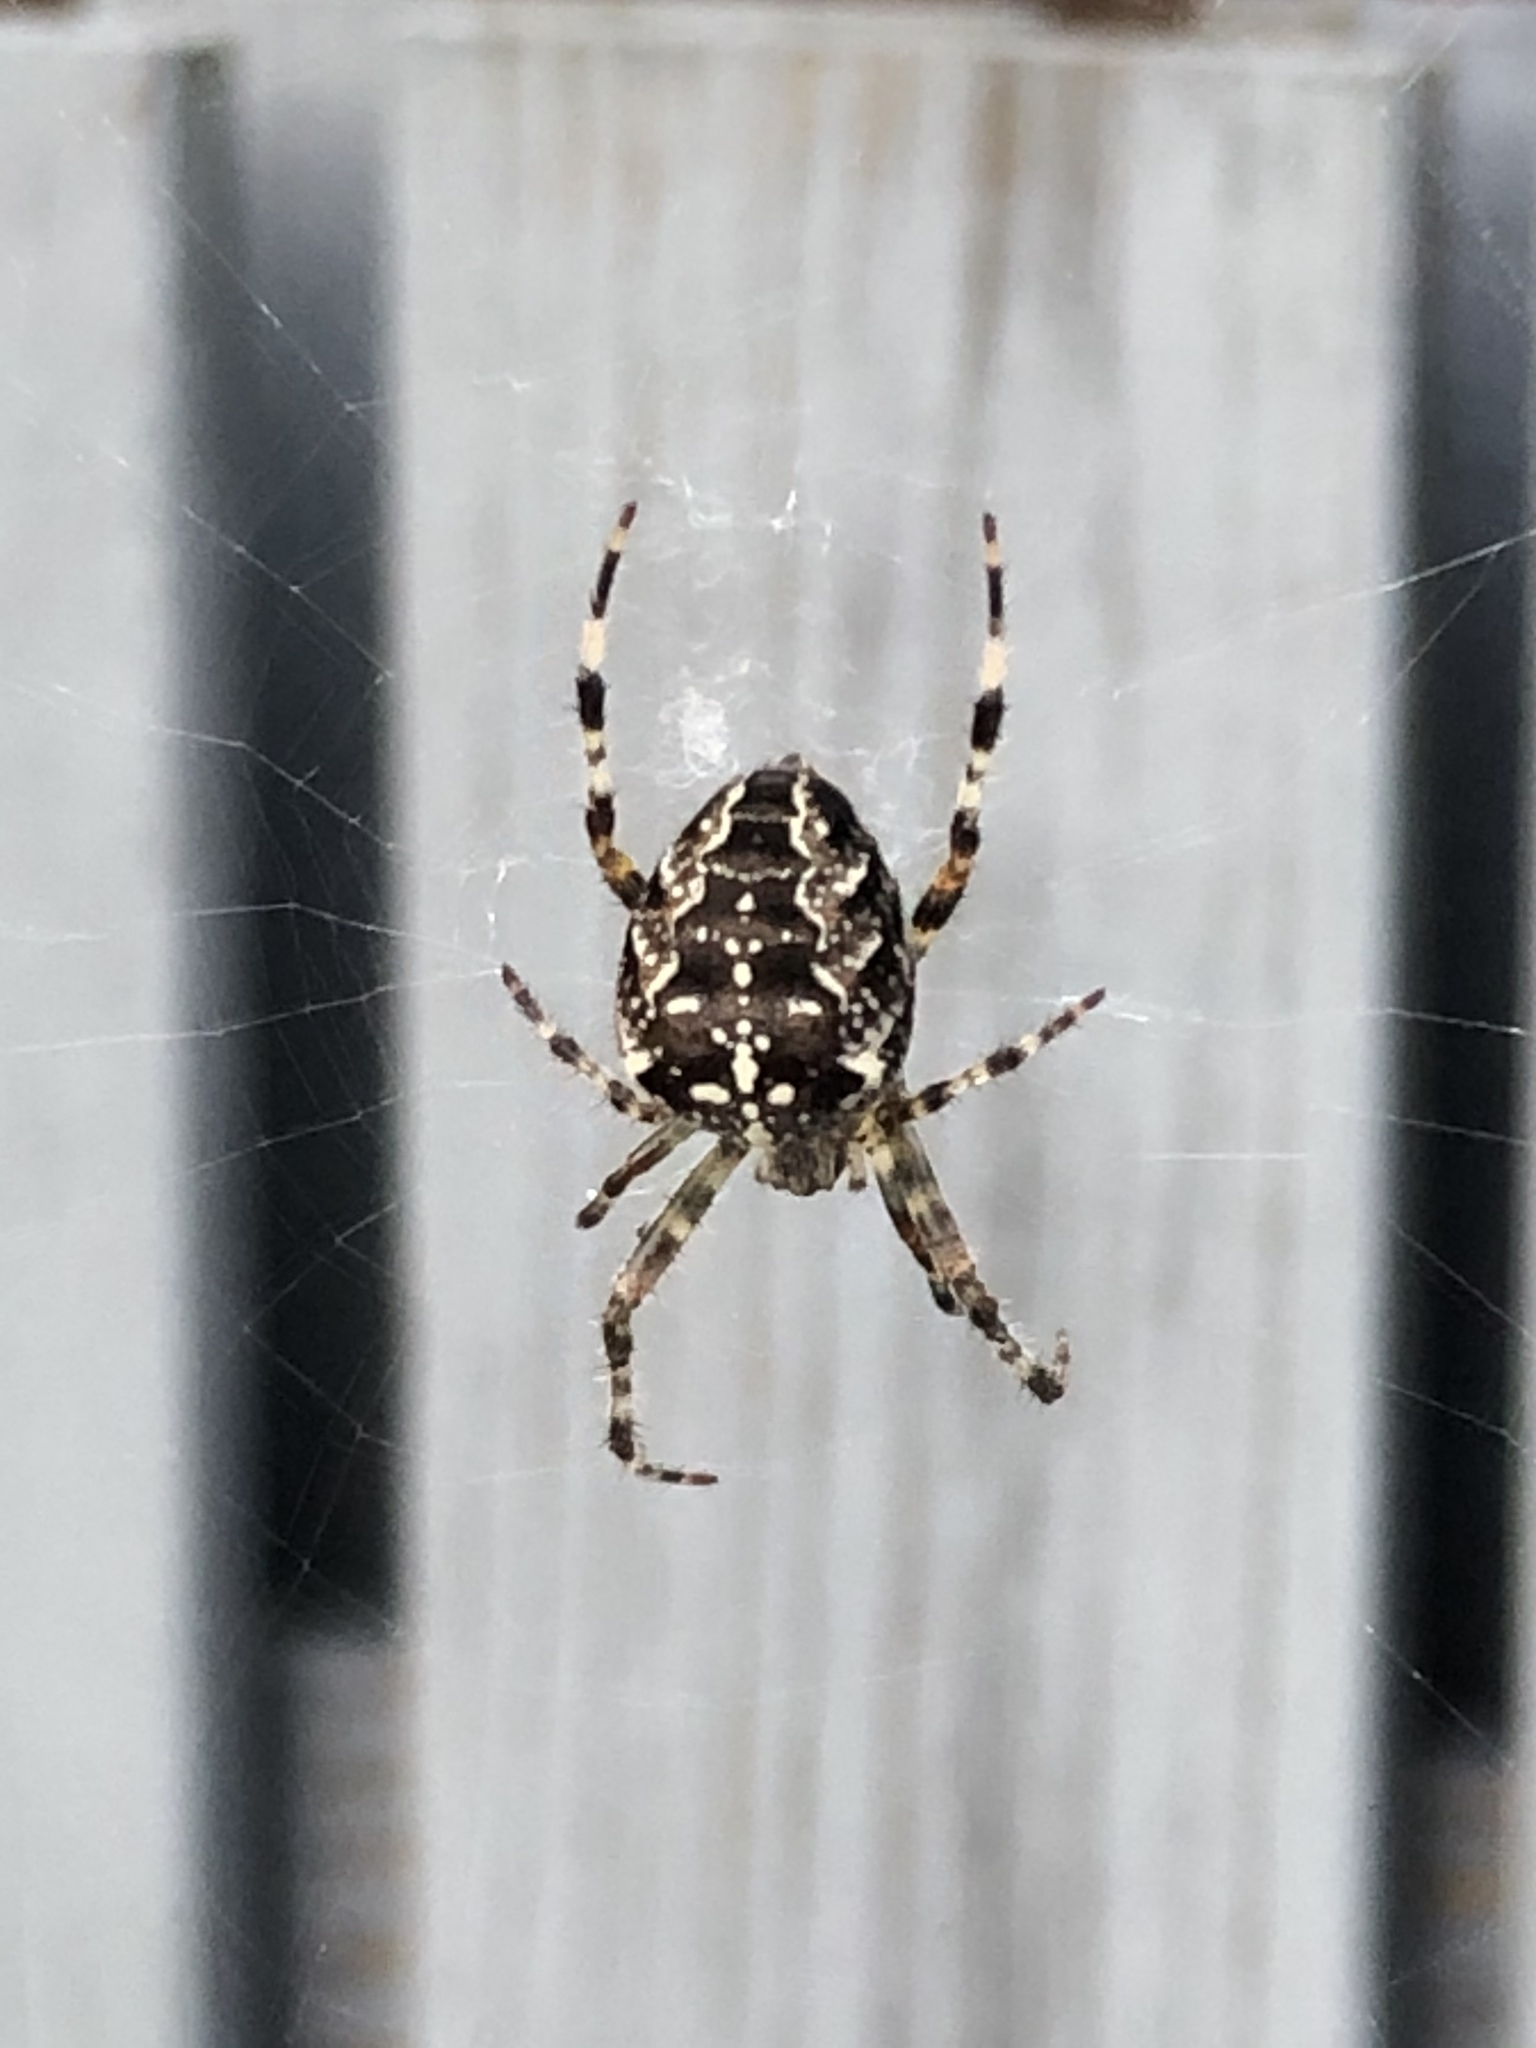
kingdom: Animalia
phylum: Arthropoda
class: Arachnida
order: Araneae
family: Araneidae
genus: Araneus
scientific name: Araneus diadematus
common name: Cross orbweaver
